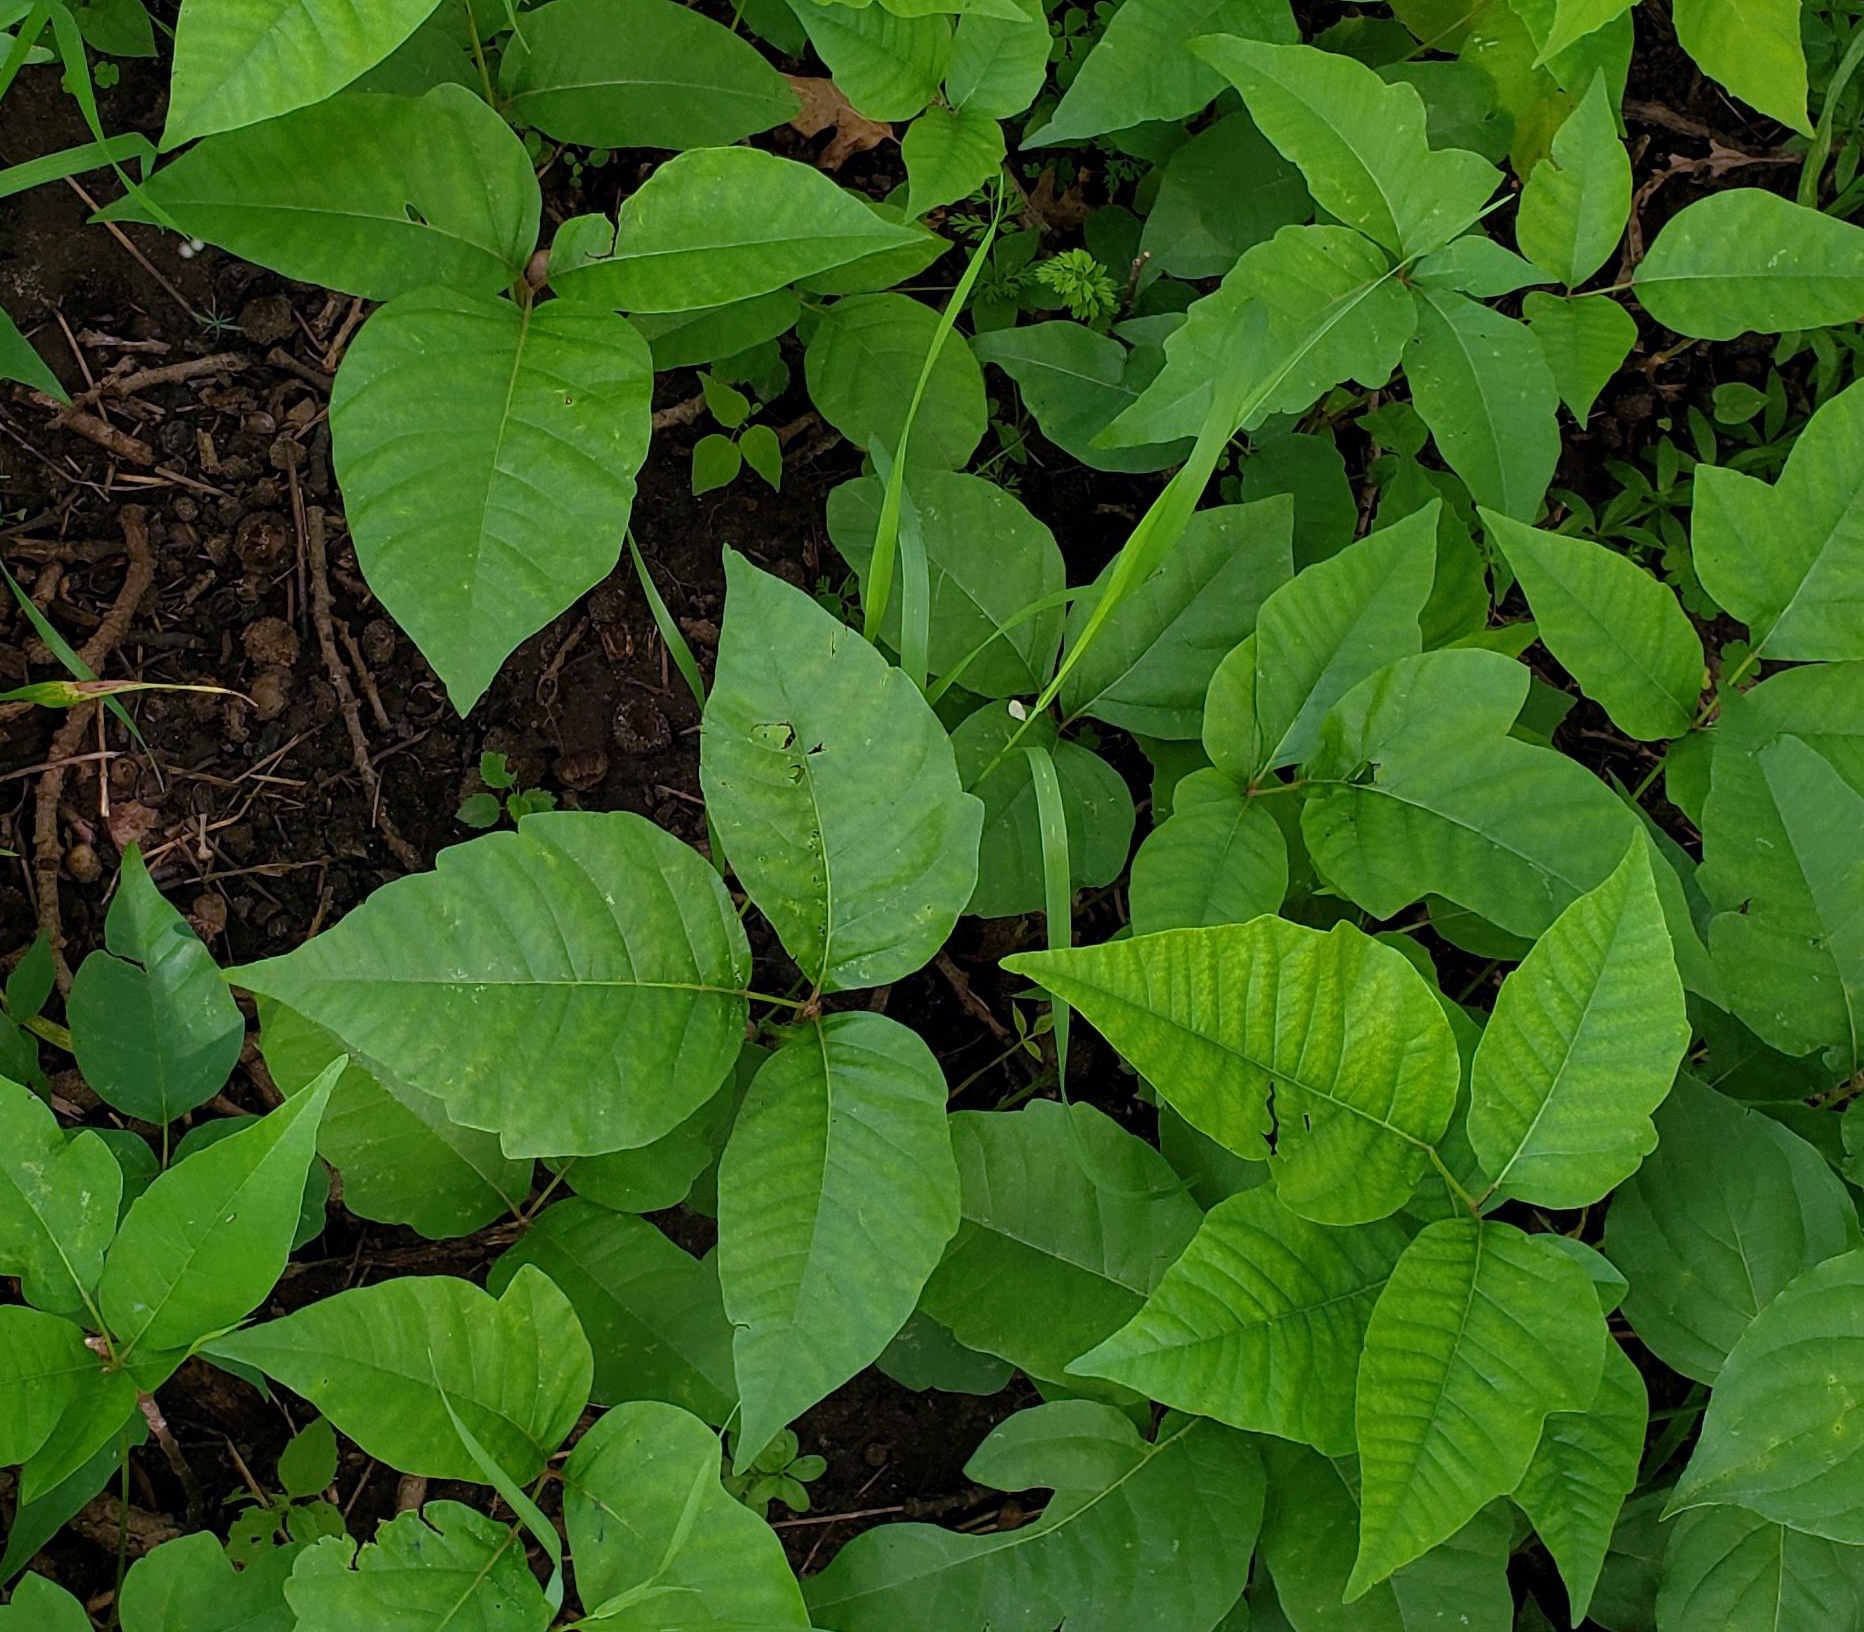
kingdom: Plantae
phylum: Tracheophyta
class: Magnoliopsida
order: Sapindales
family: Anacardiaceae
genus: Toxicodendron
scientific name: Toxicodendron rydbergii
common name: Rydberg's poison-ivy
